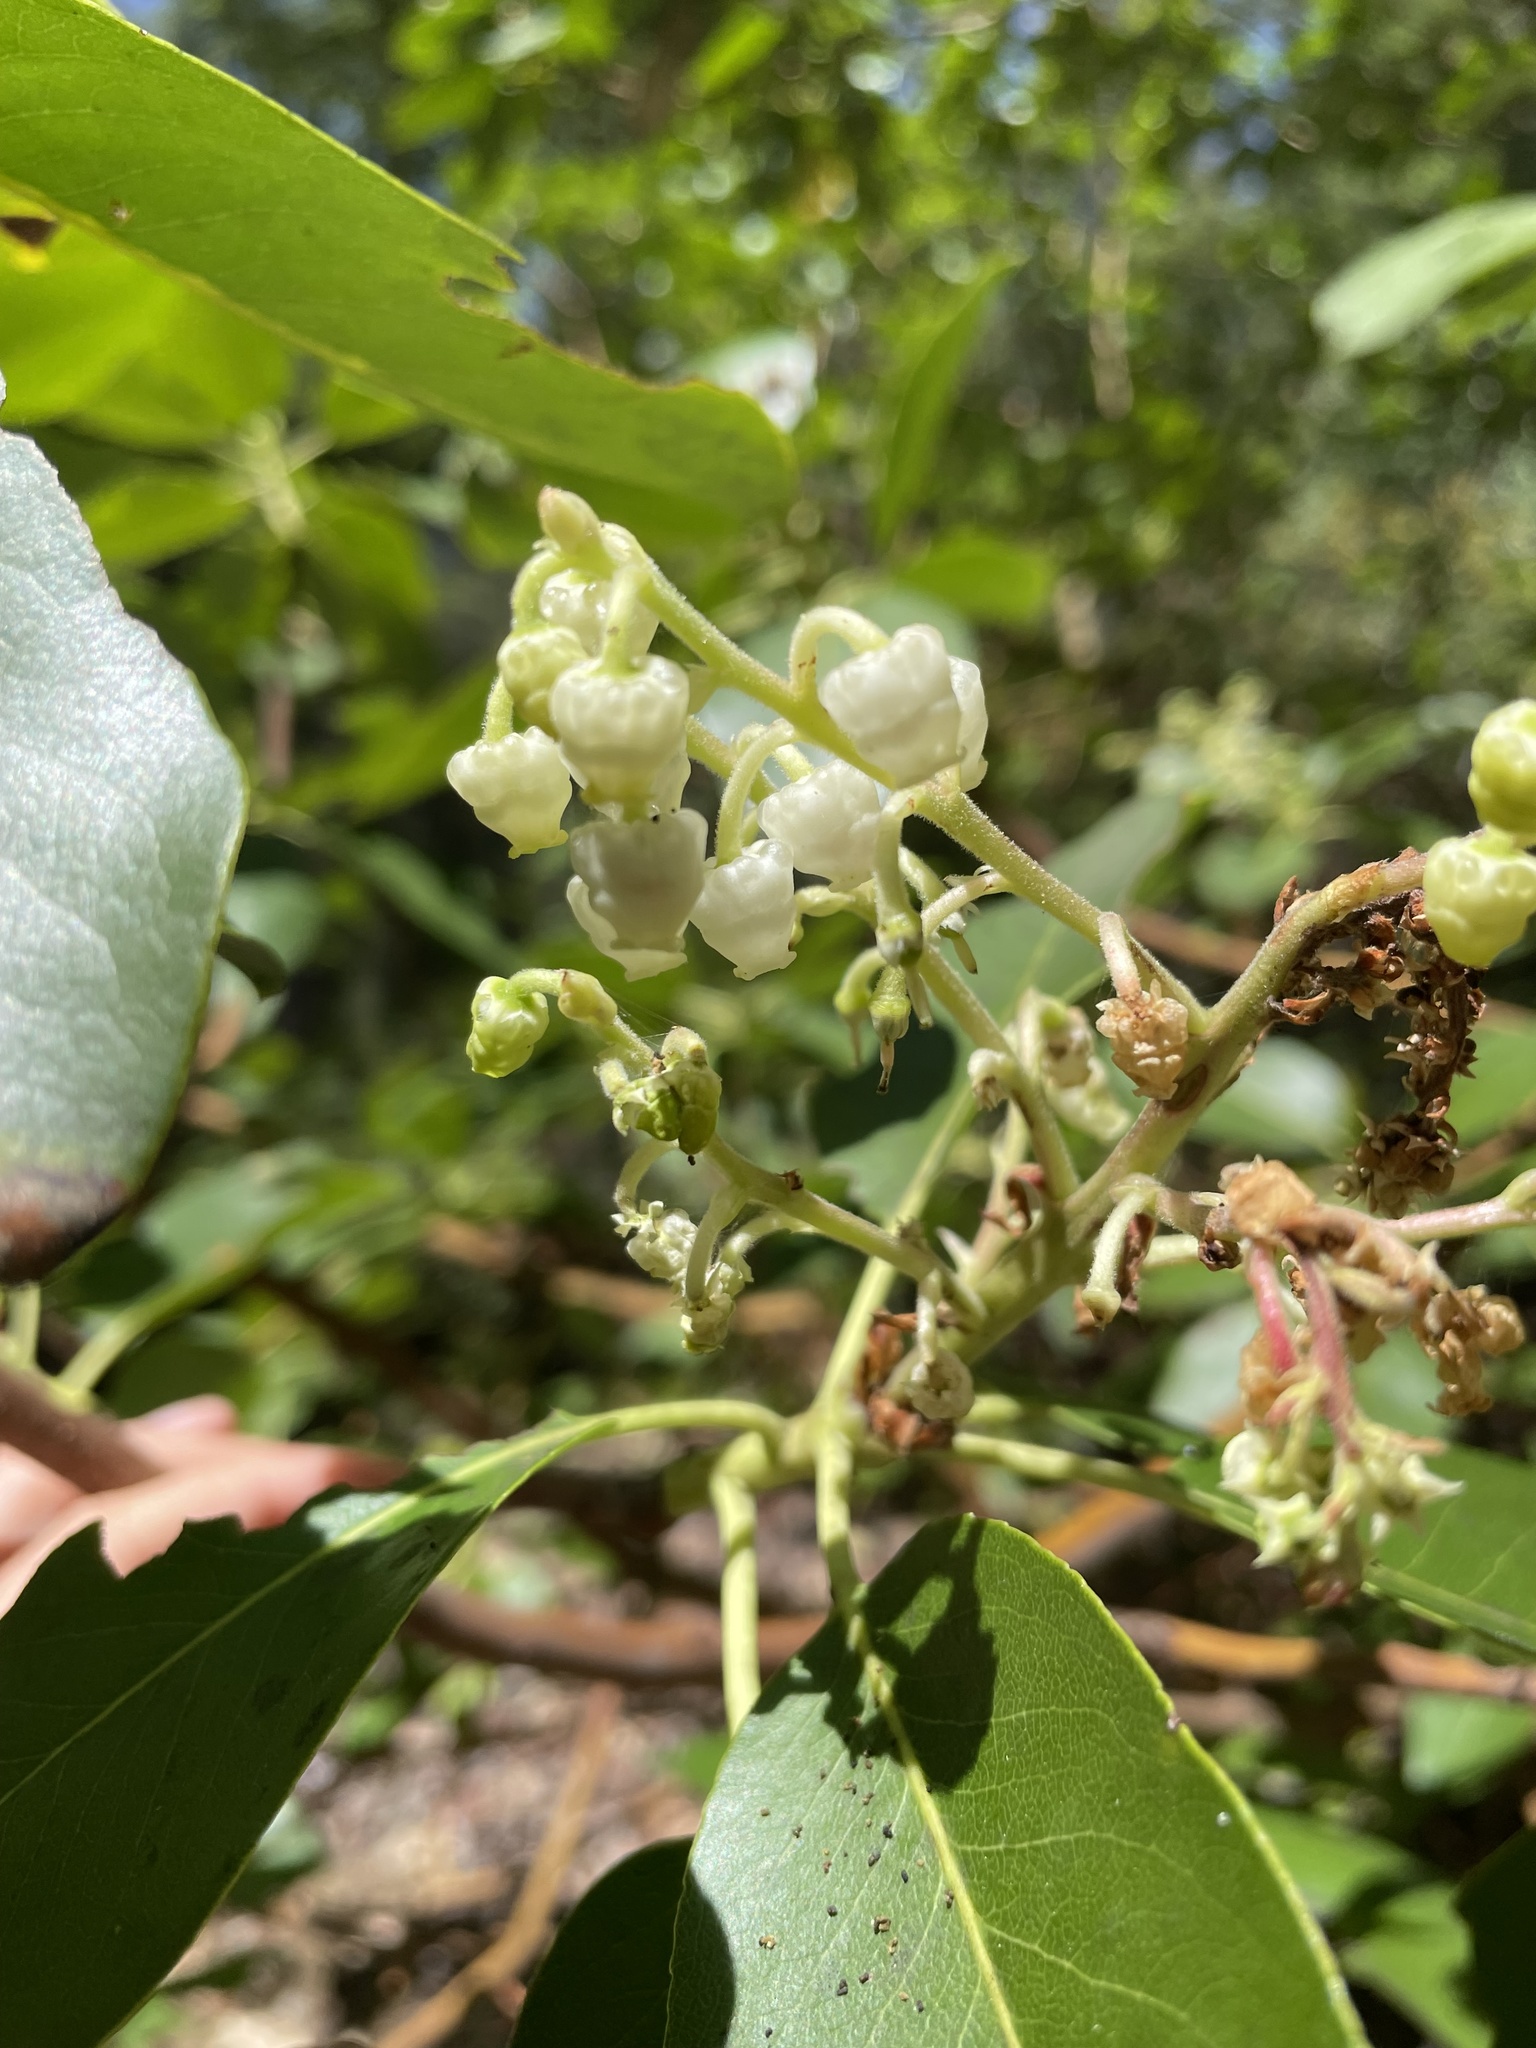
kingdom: Plantae
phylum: Tracheophyta
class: Magnoliopsida
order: Ericales
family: Ericaceae
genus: Arbutus
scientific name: Arbutus menziesii
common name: Pacific madrone
